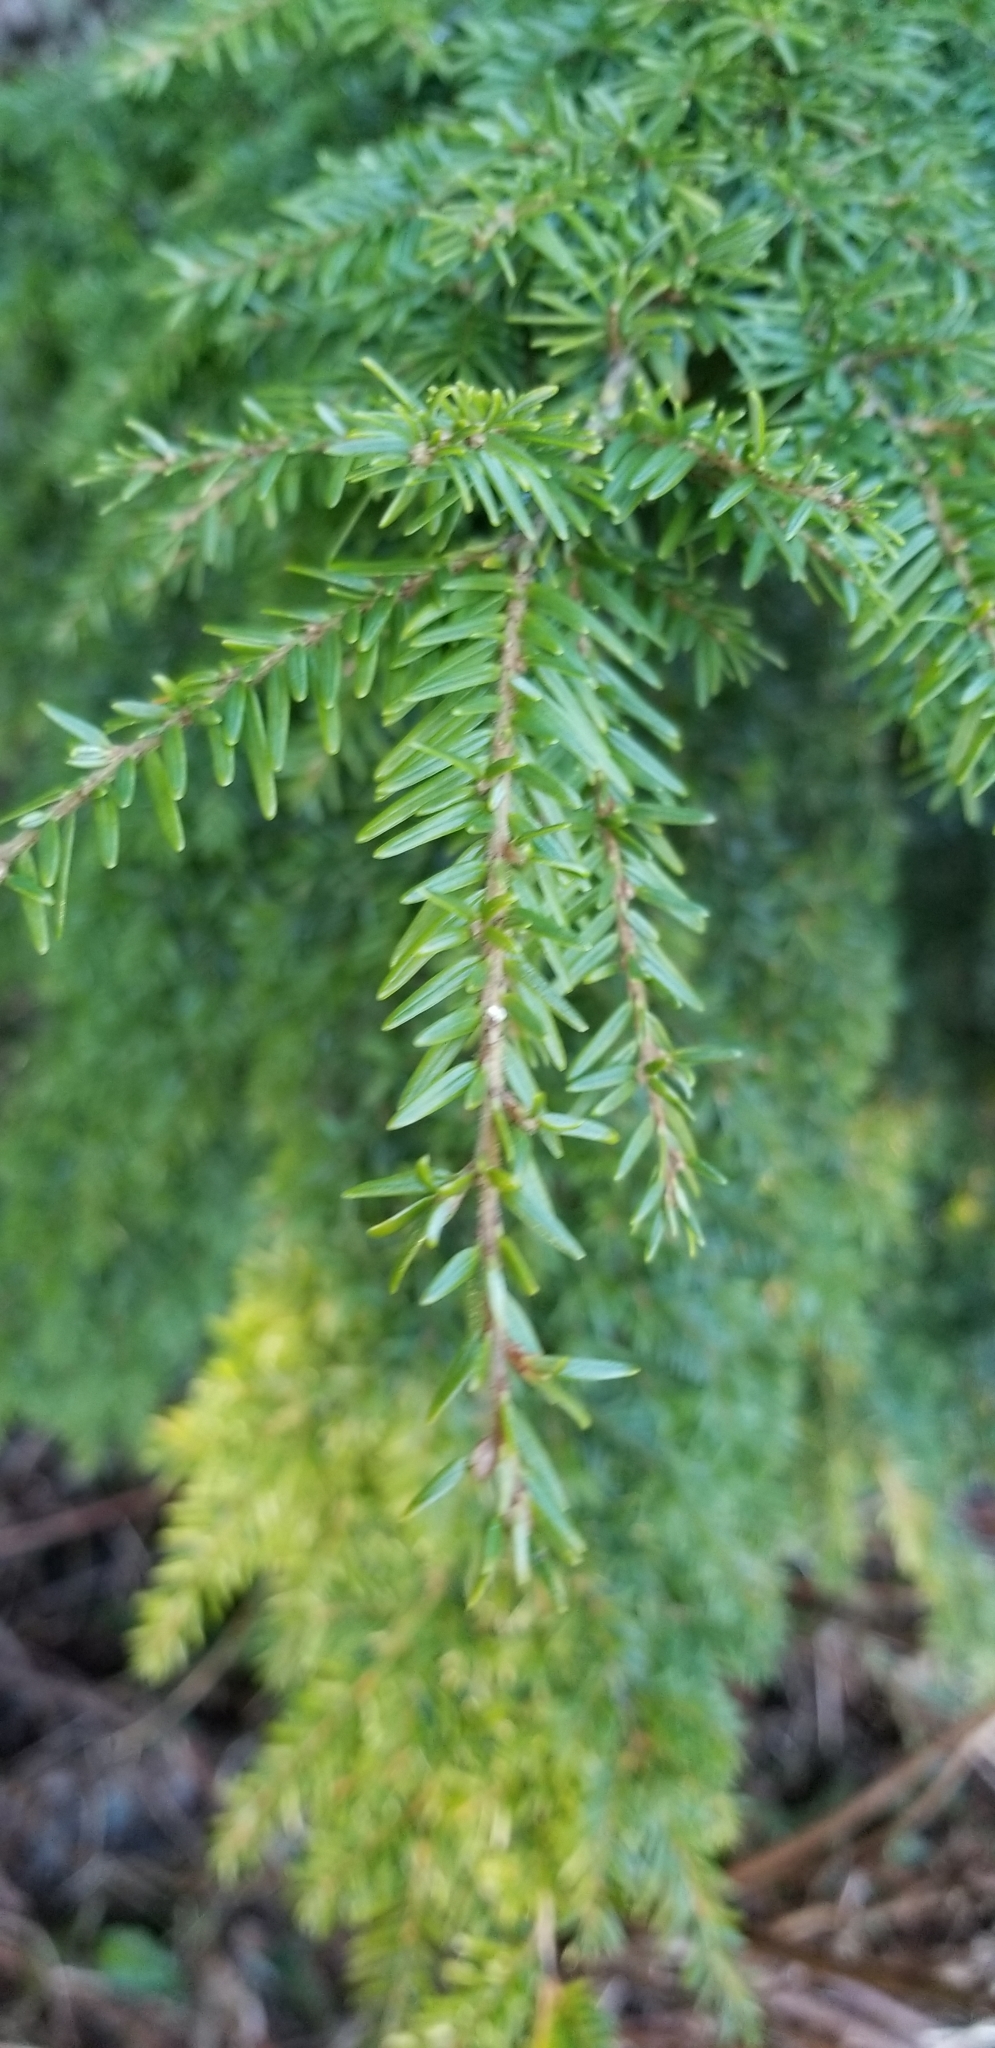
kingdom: Plantae
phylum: Tracheophyta
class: Pinopsida
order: Pinales
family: Pinaceae
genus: Tsuga
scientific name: Tsuga heterophylla
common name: Western hemlock
